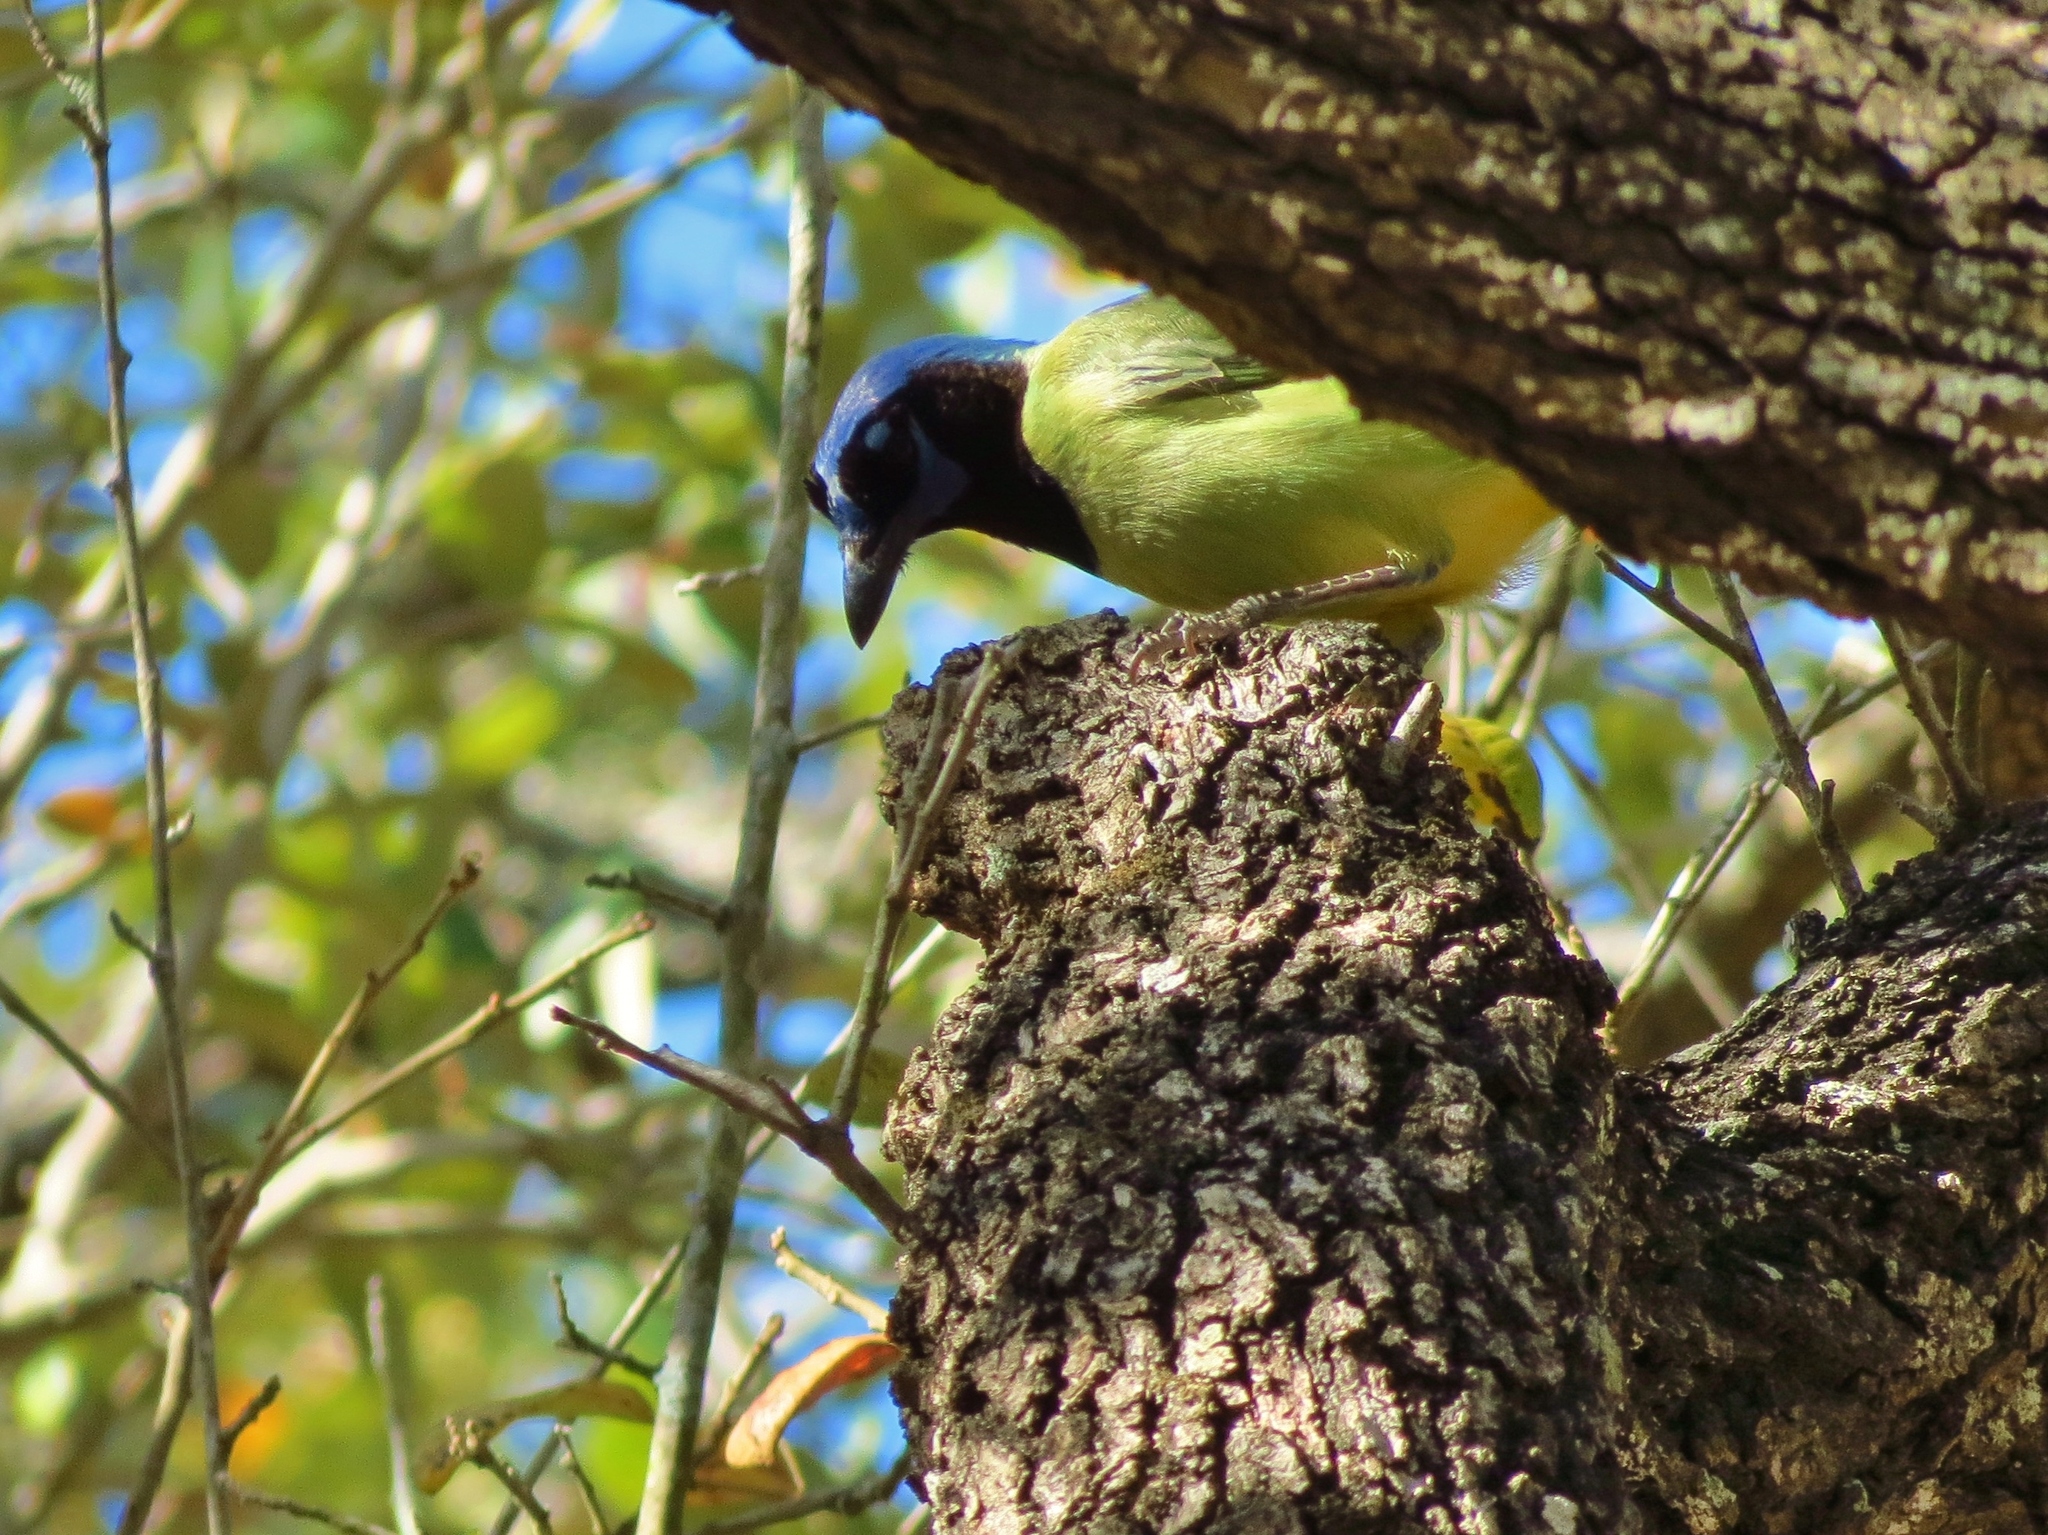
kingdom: Animalia
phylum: Chordata
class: Aves
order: Passeriformes
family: Corvidae
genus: Cyanocorax
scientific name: Cyanocorax yncas
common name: Green jay
